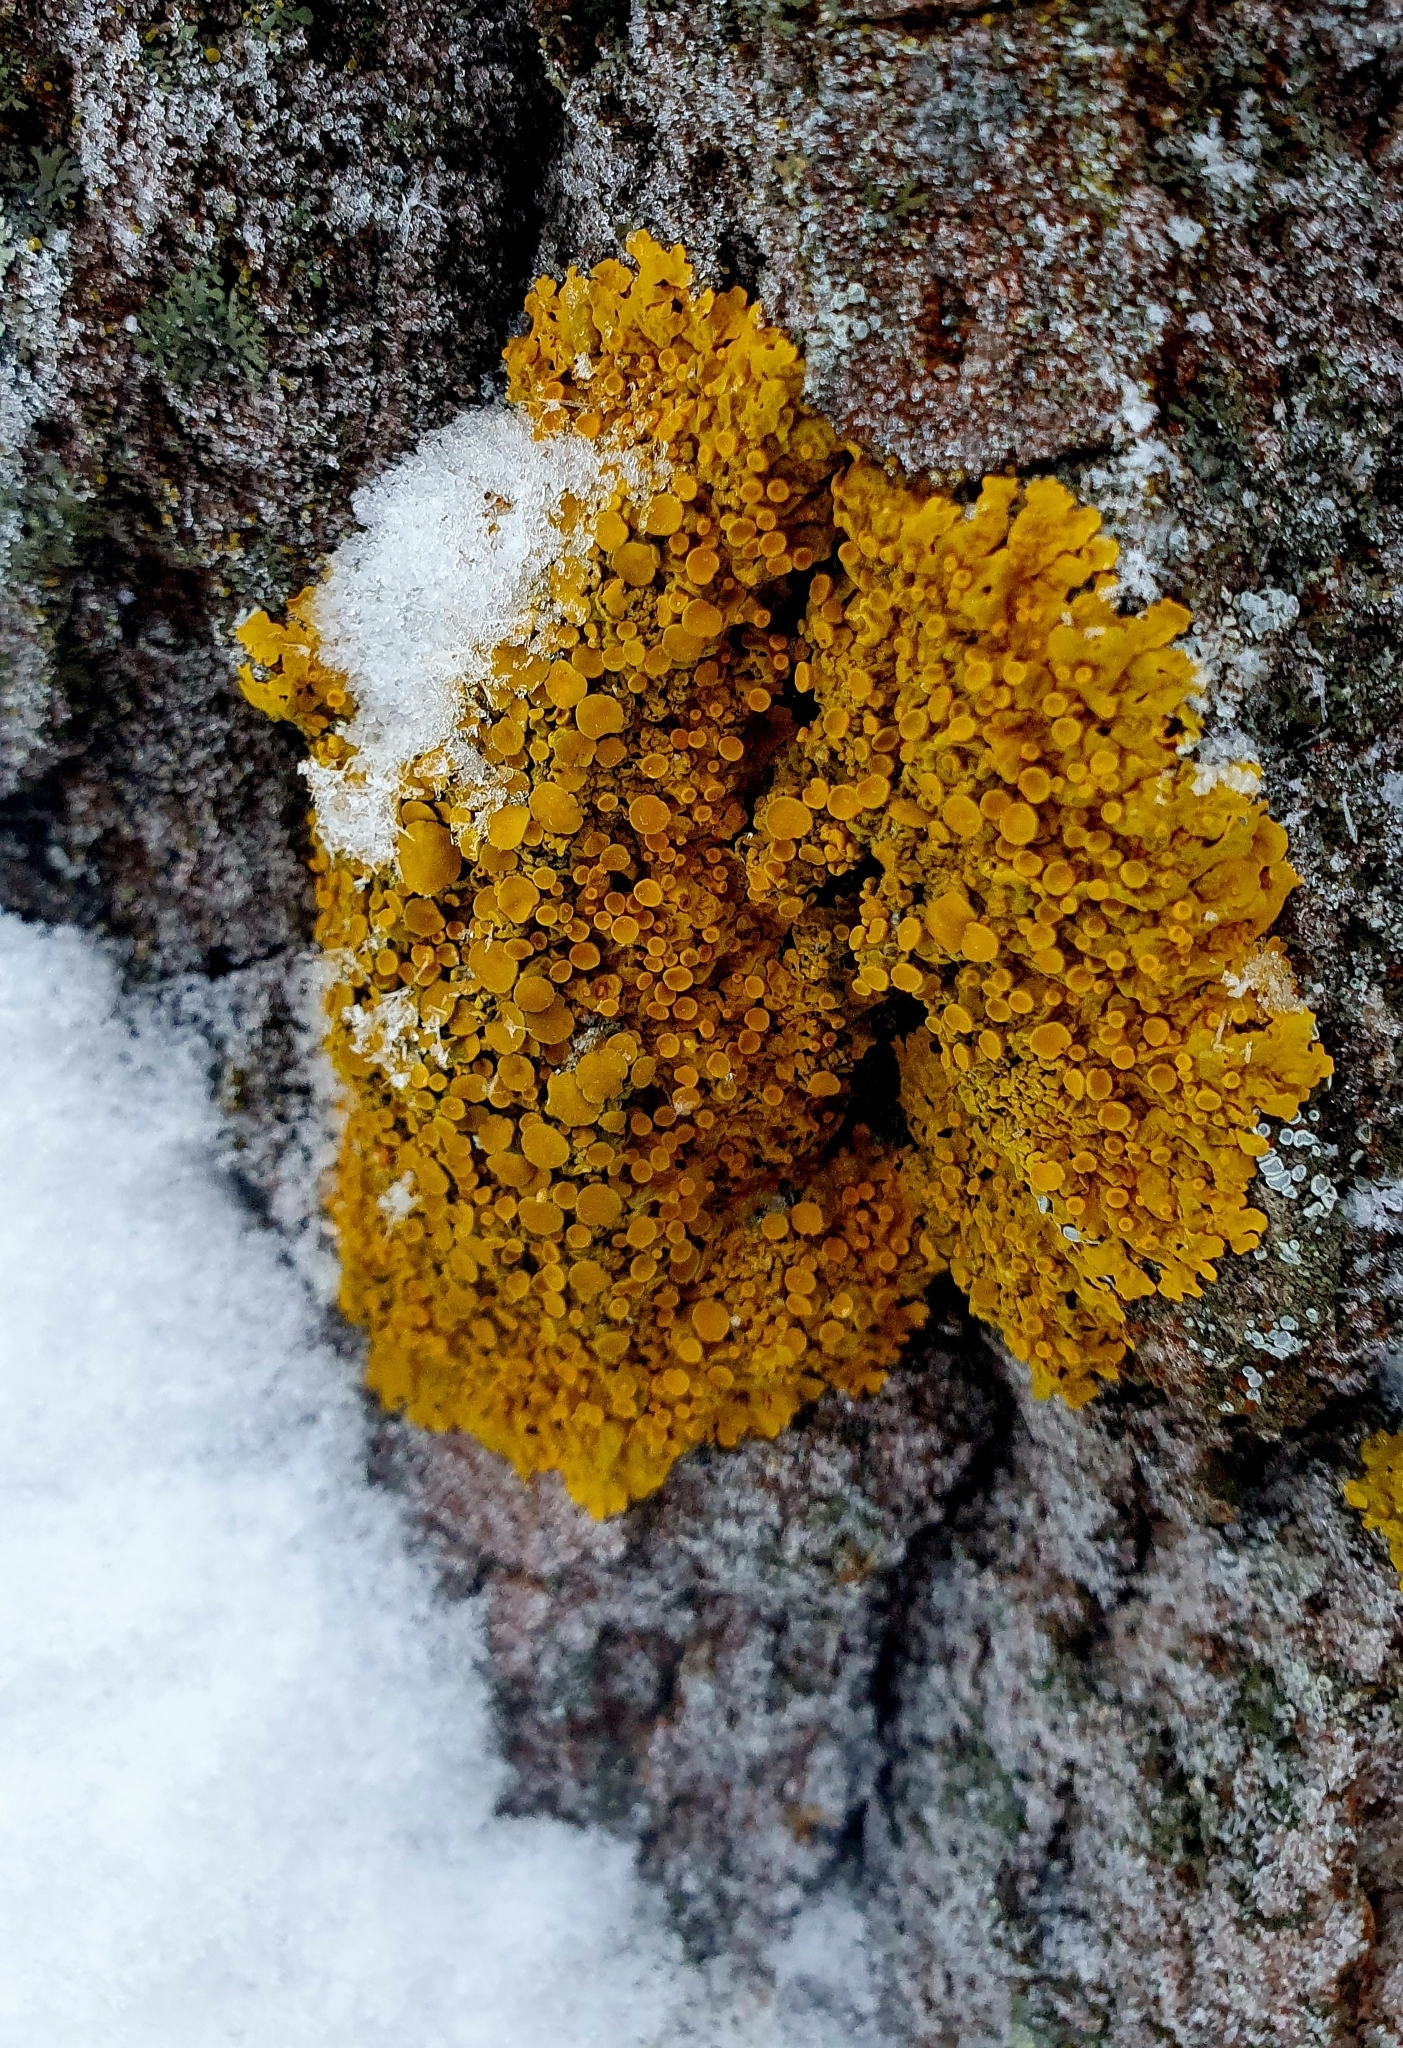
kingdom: Fungi
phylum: Ascomycota
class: Lecanoromycetes
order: Teloschistales
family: Teloschistaceae
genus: Xanthoria
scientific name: Xanthoria parietina
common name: Common orange lichen
